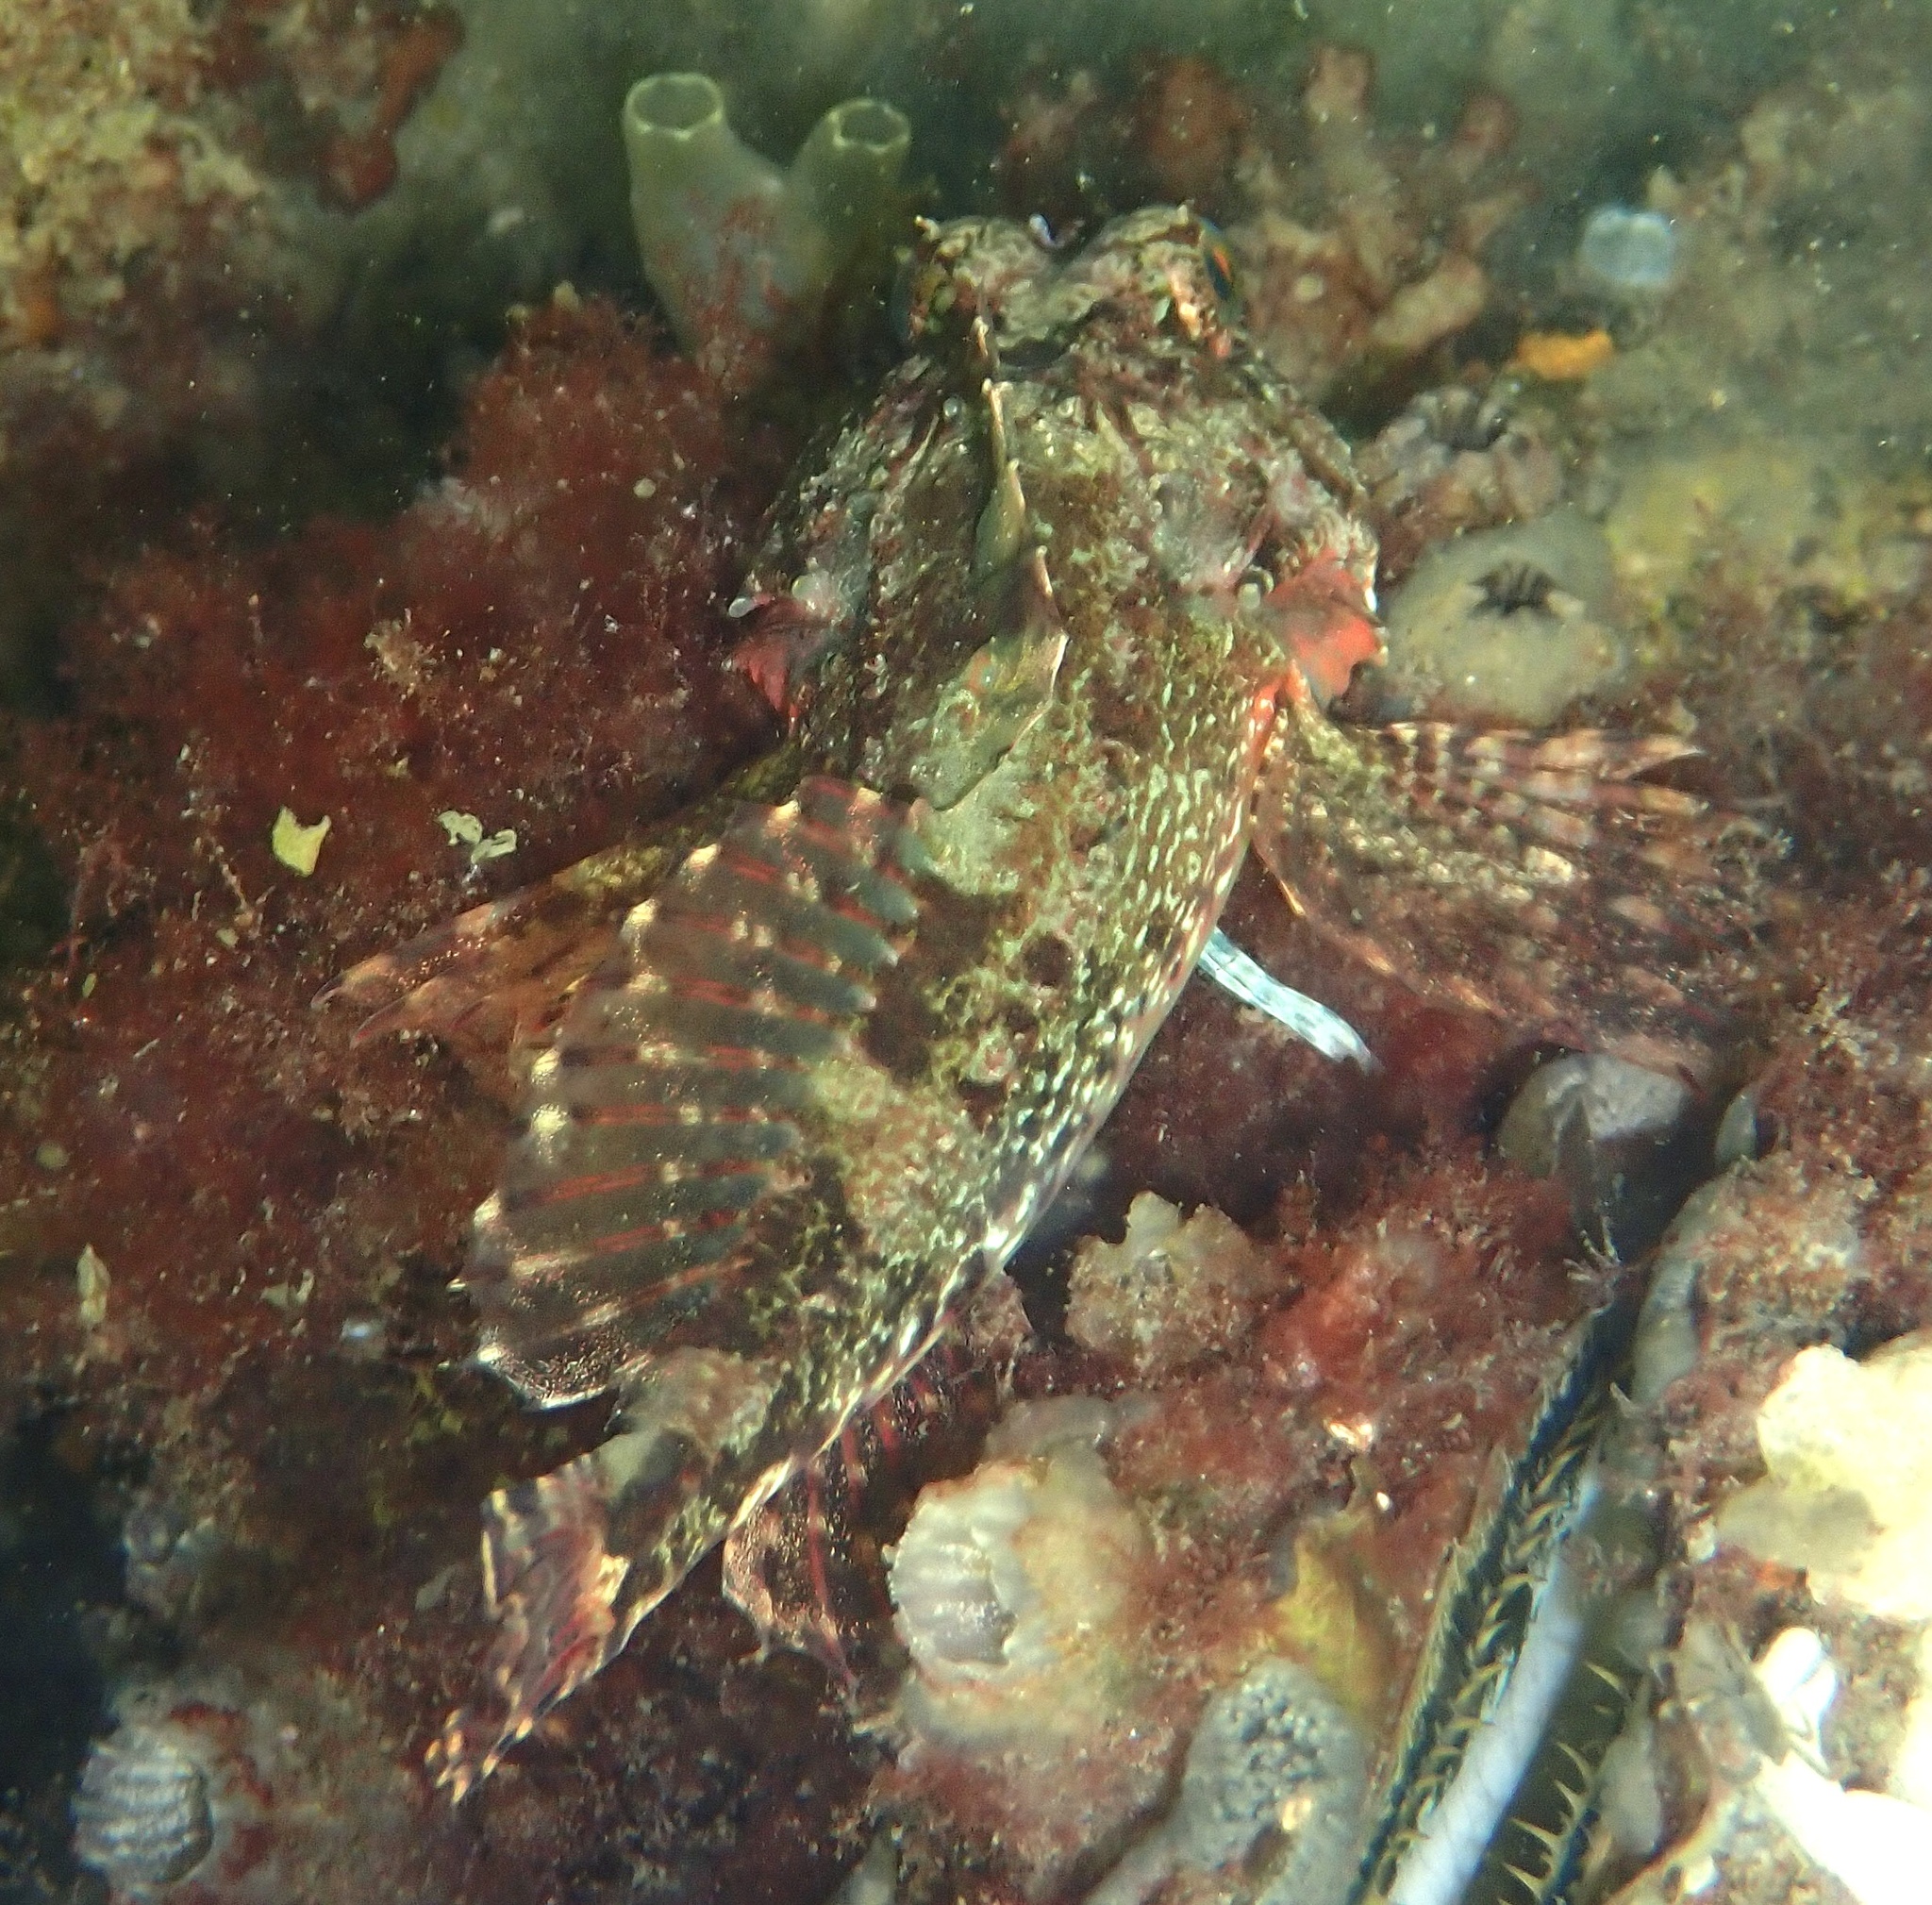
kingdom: Animalia
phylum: Chordata
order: Scorpaeniformes
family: Cottidae
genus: Taurulus
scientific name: Taurulus bubalis
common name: Sea scorpion
